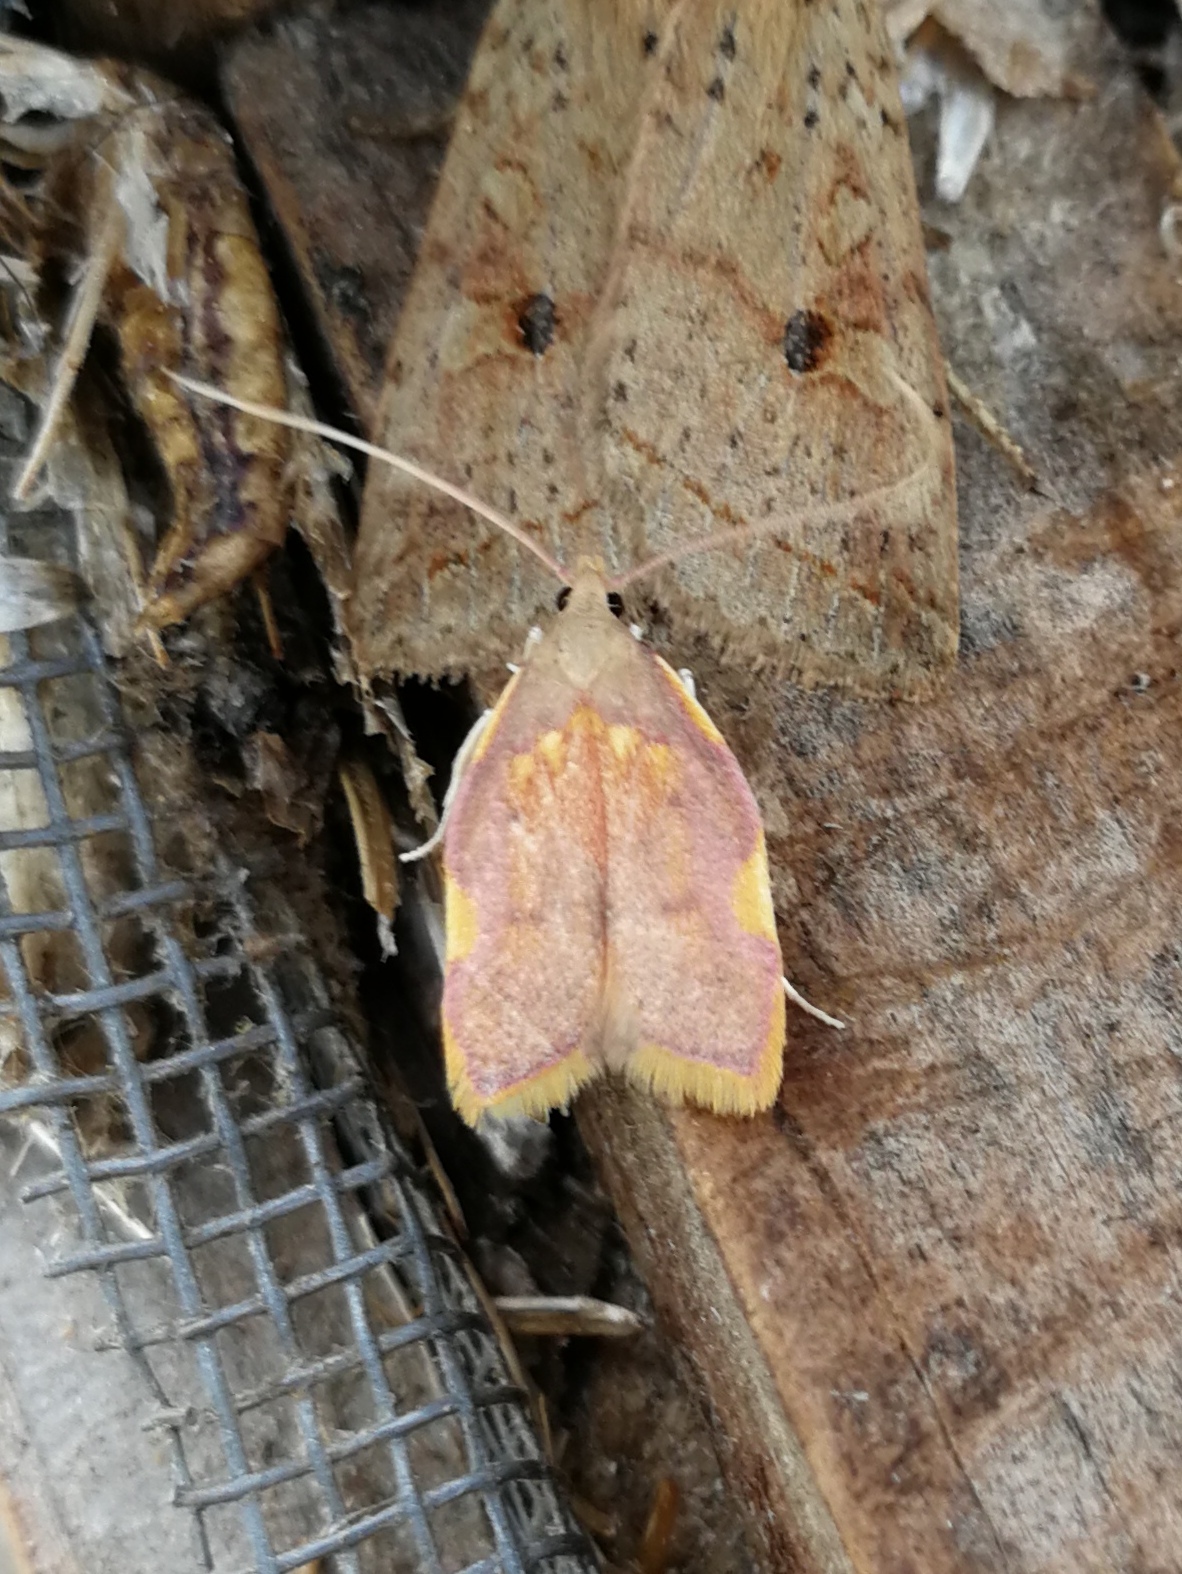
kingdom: Animalia
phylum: Arthropoda
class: Insecta
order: Lepidoptera
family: Peleopodidae
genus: Carcina
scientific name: Carcina quercana
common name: Moth
